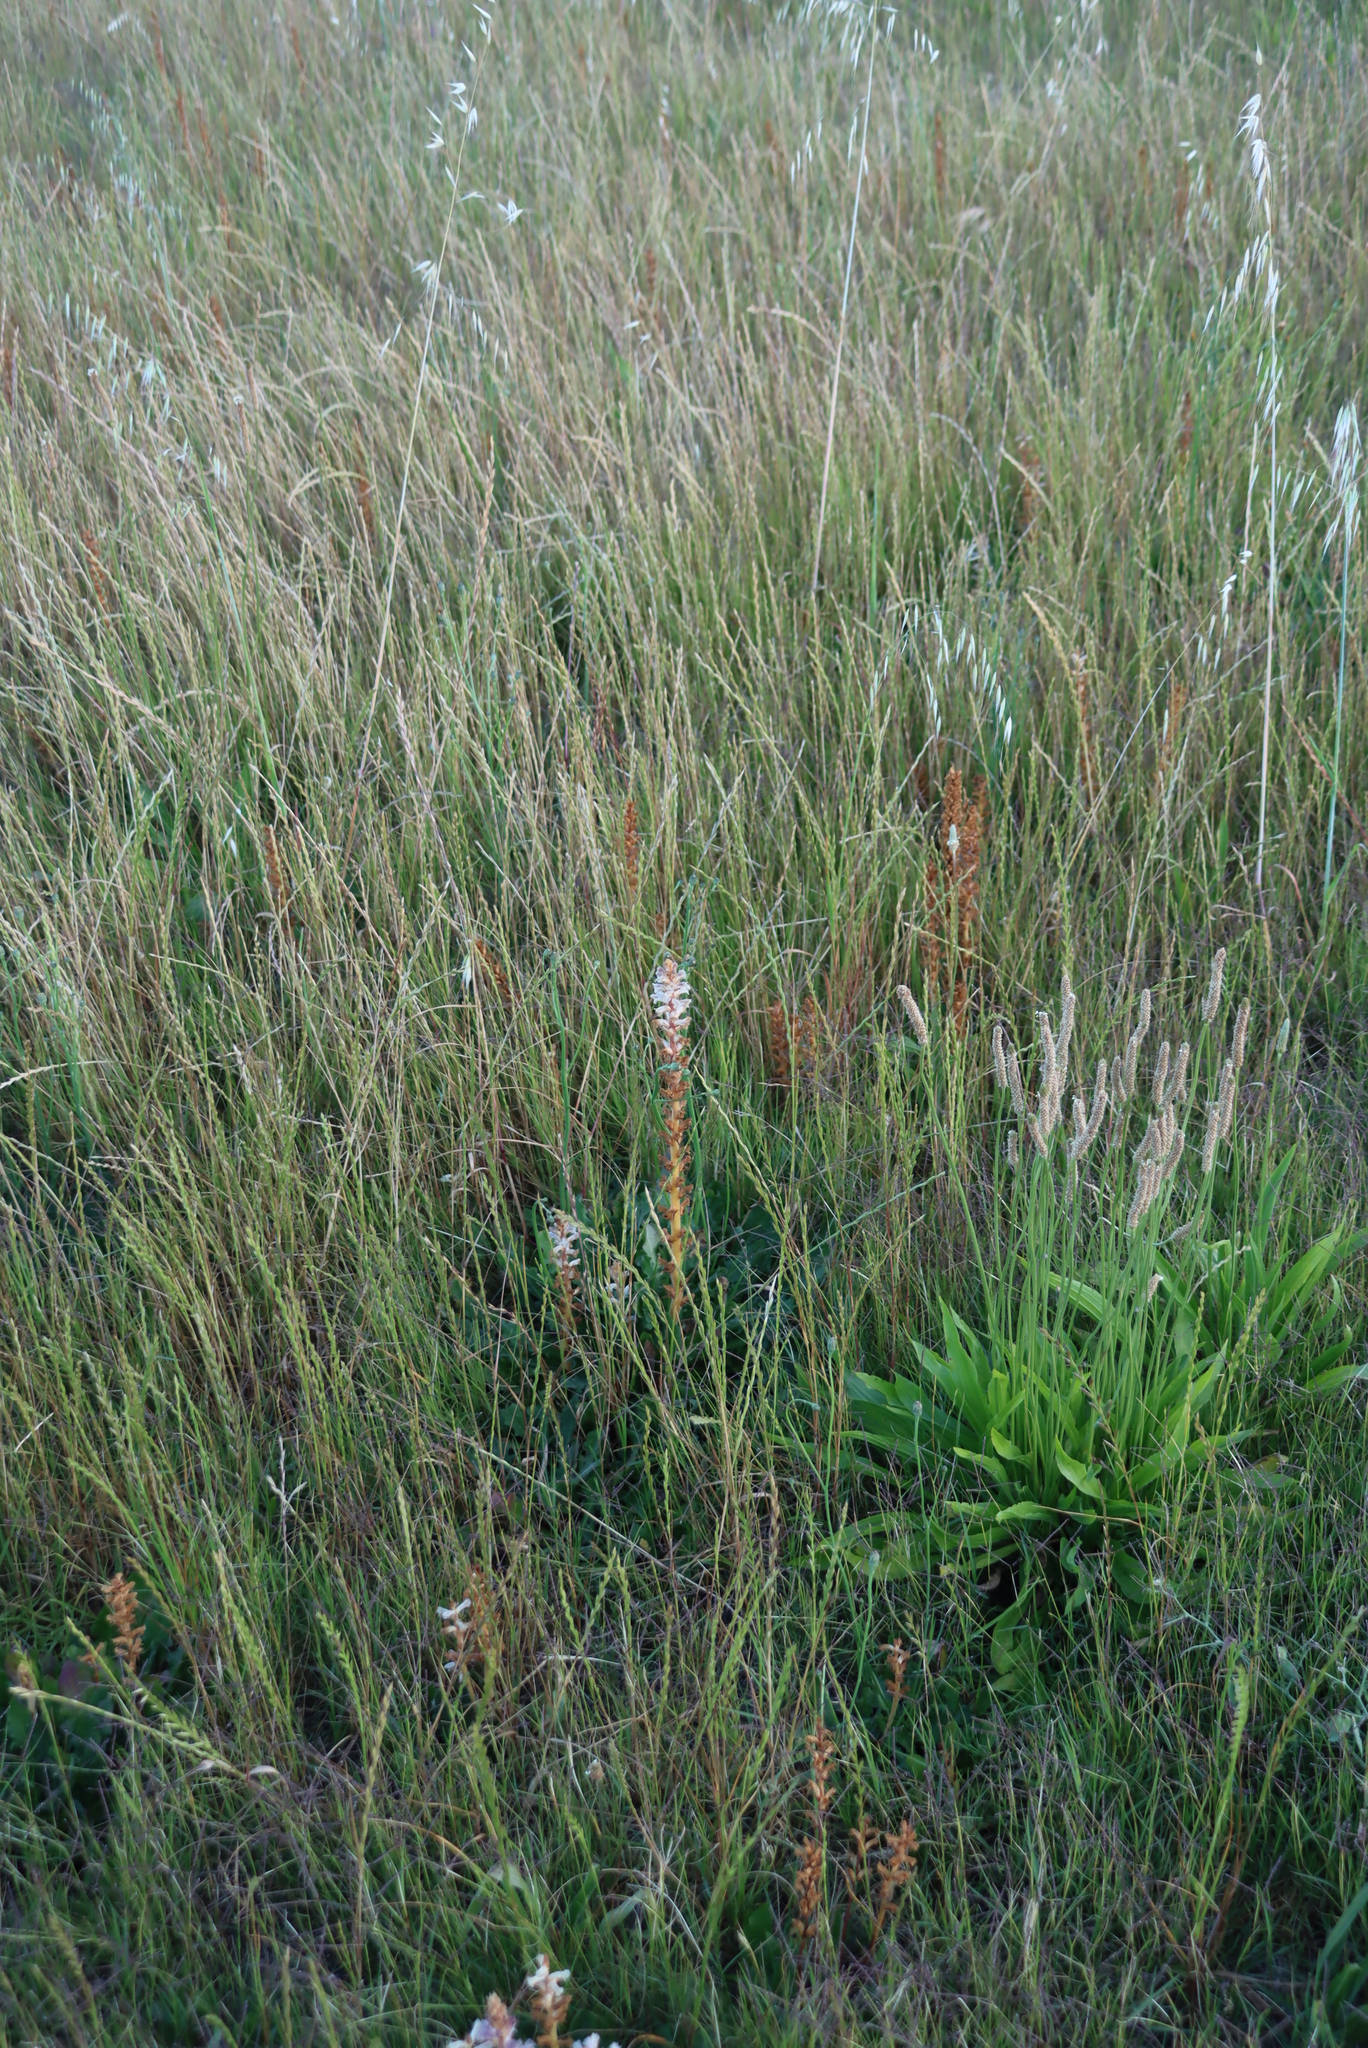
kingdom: Plantae
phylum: Tracheophyta
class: Magnoliopsida
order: Lamiales
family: Orobanchaceae
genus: Orobanche
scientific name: Orobanche minor
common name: Common broomrape
